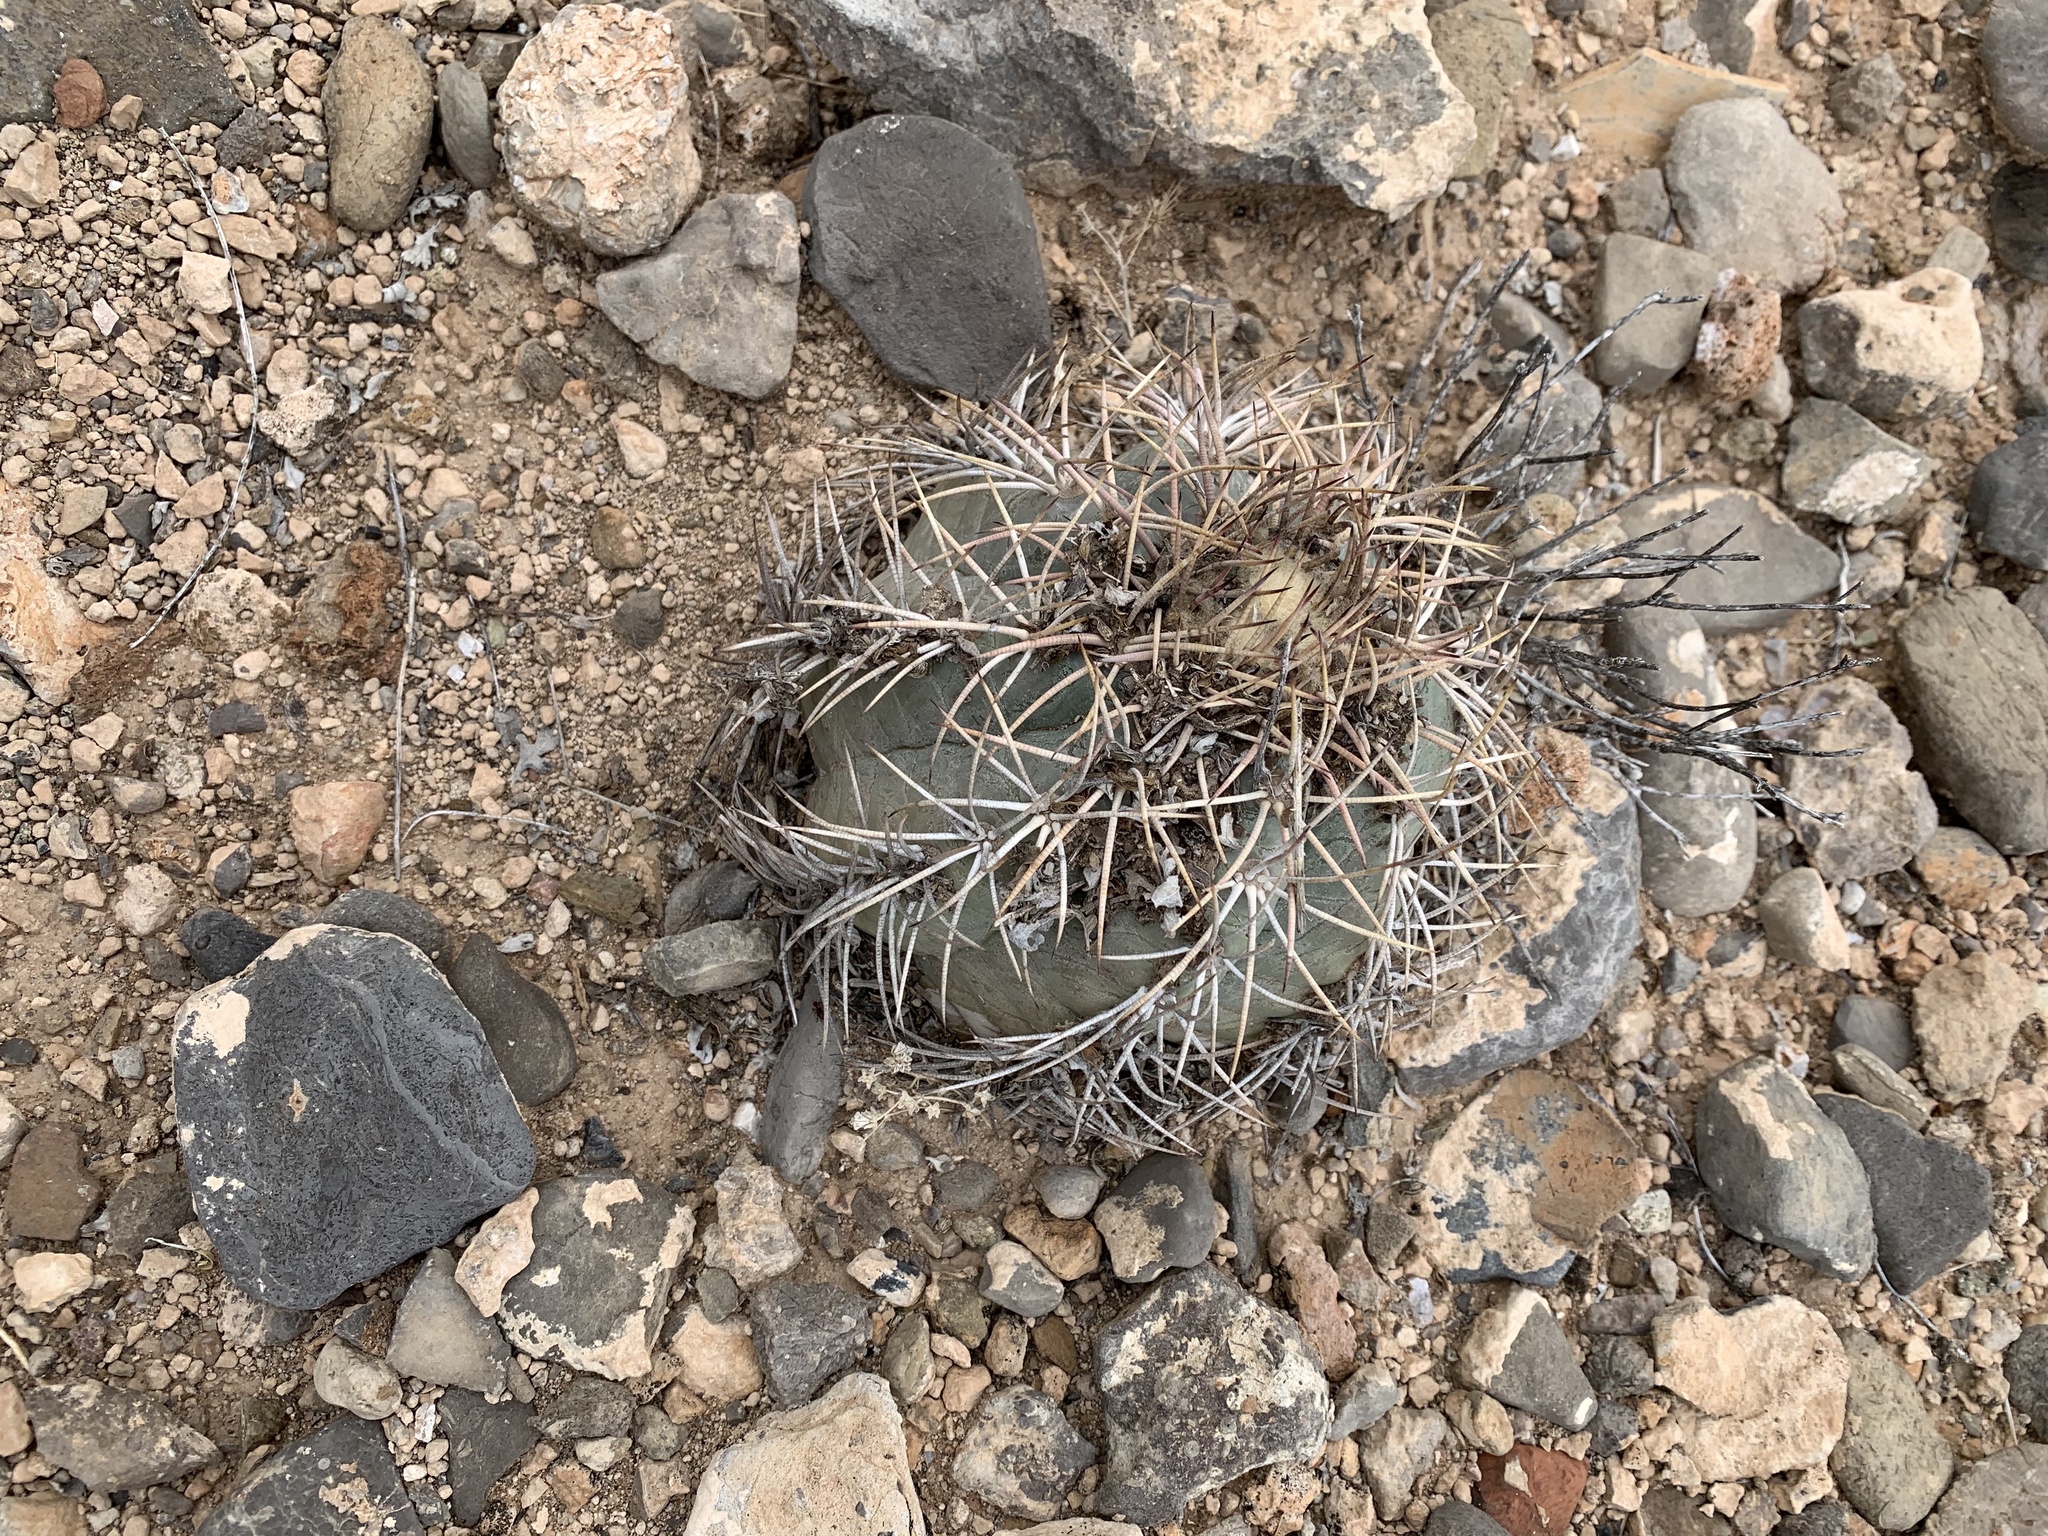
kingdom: Plantae
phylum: Tracheophyta
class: Magnoliopsida
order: Caryophyllales
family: Cactaceae
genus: Echinocactus
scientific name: Echinocactus horizonthalonius
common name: Devilshead
